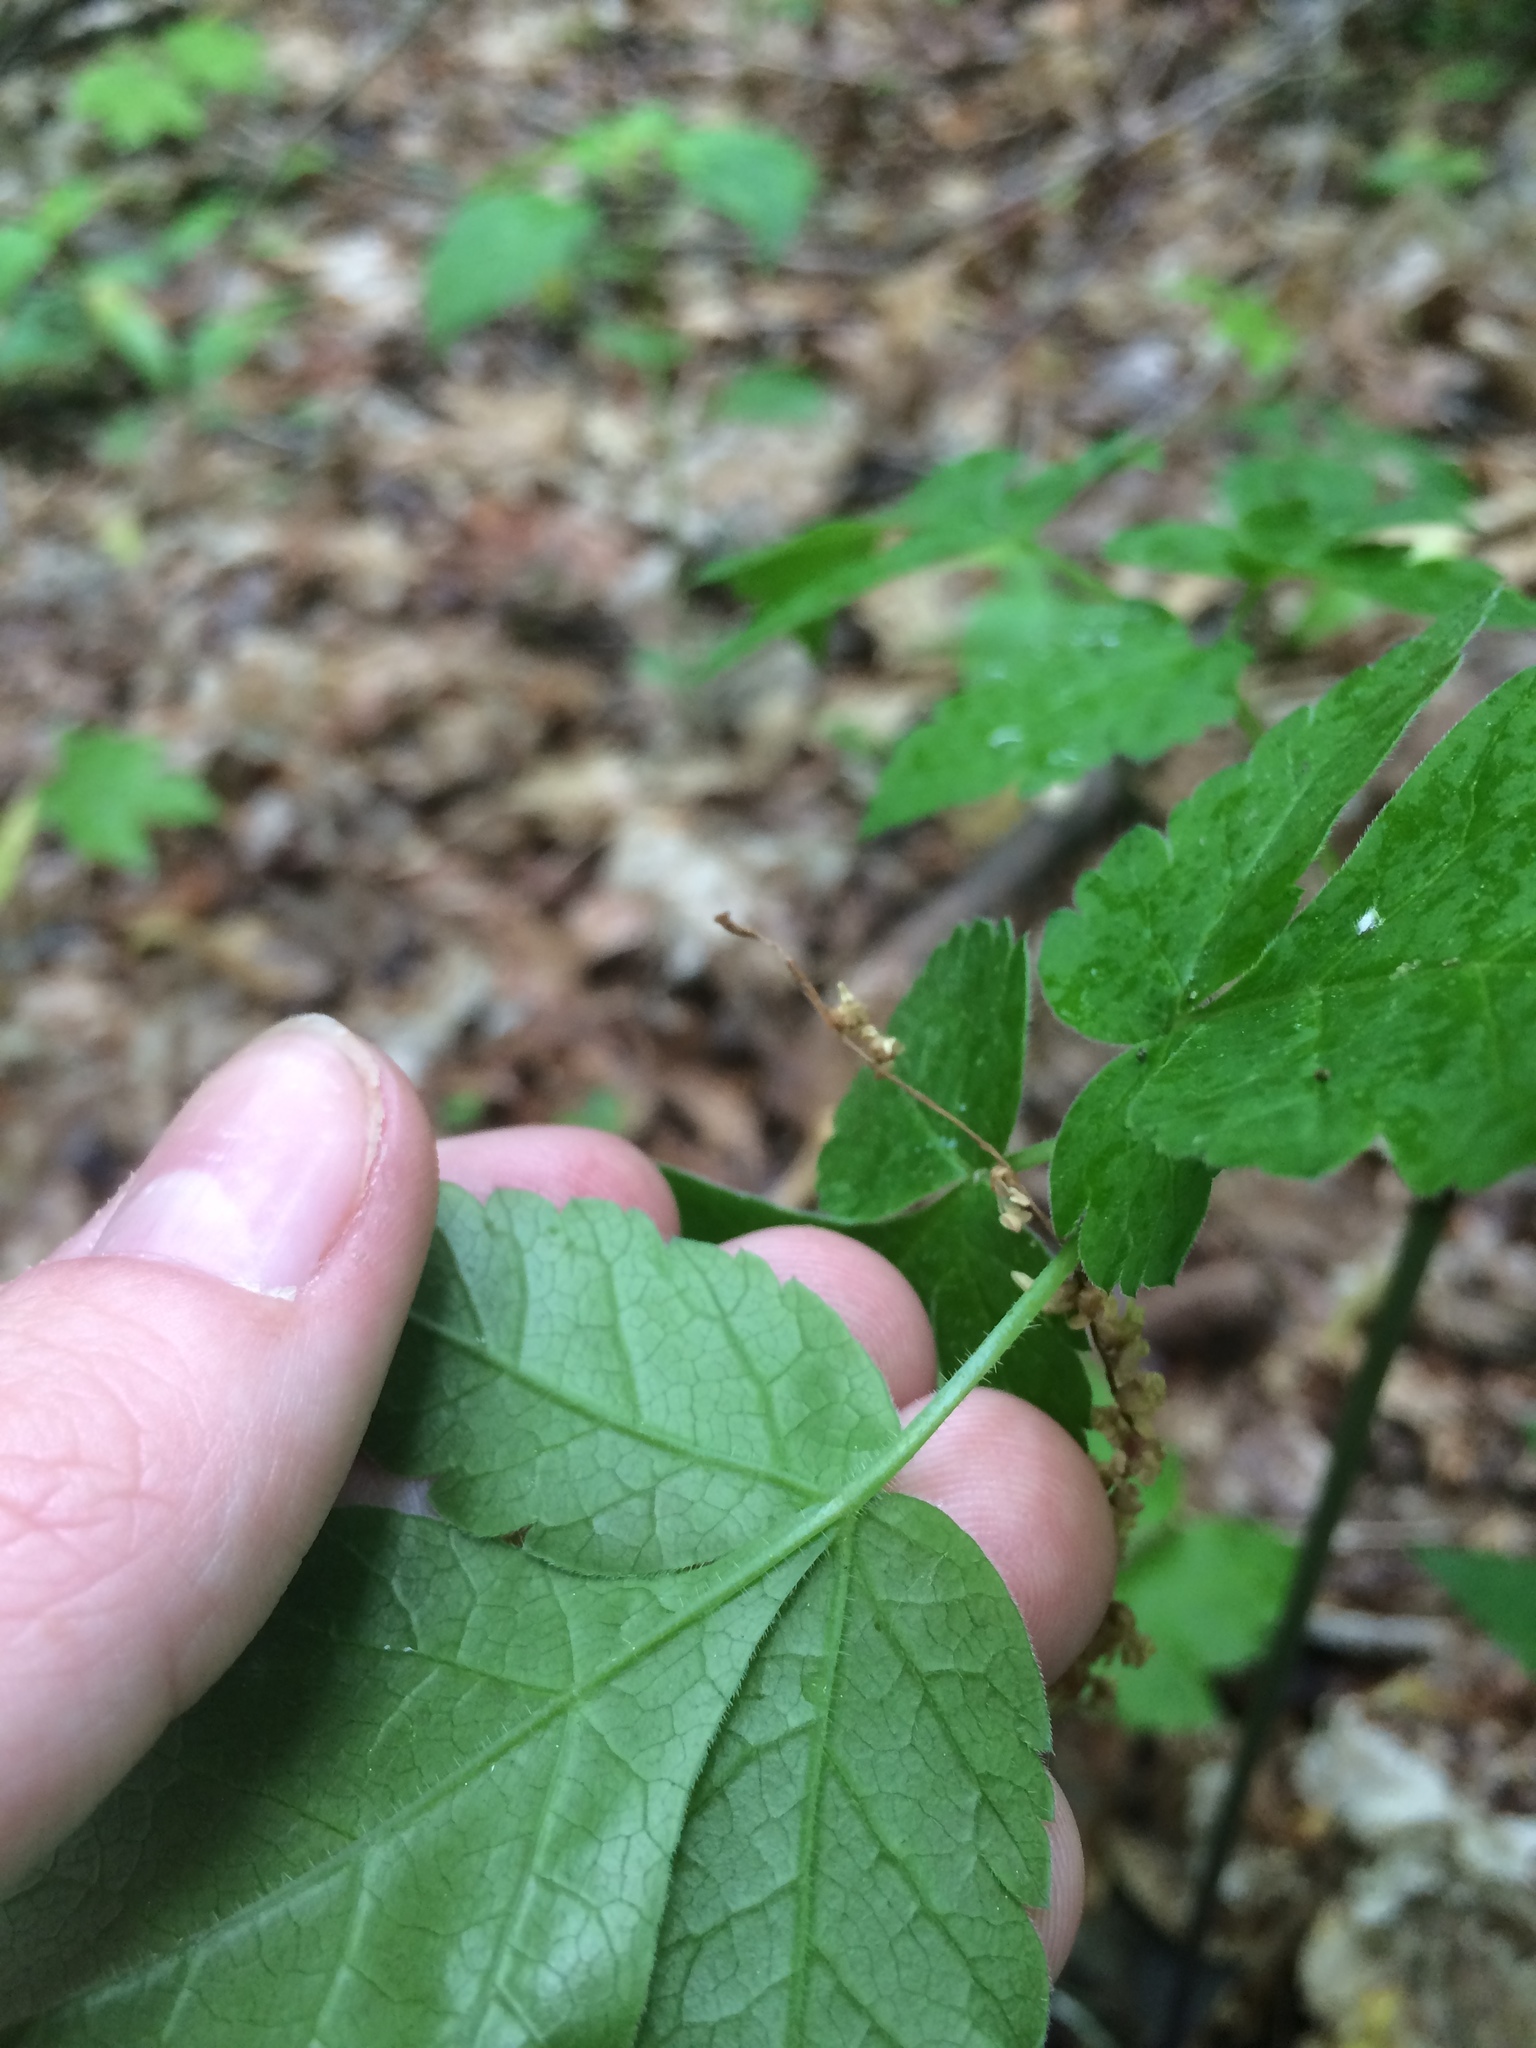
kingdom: Plantae
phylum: Tracheophyta
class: Magnoliopsida
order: Apiales
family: Apiaceae
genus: Osmorhiza
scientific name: Osmorhiza longistylis
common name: Smooth sweet cicely
